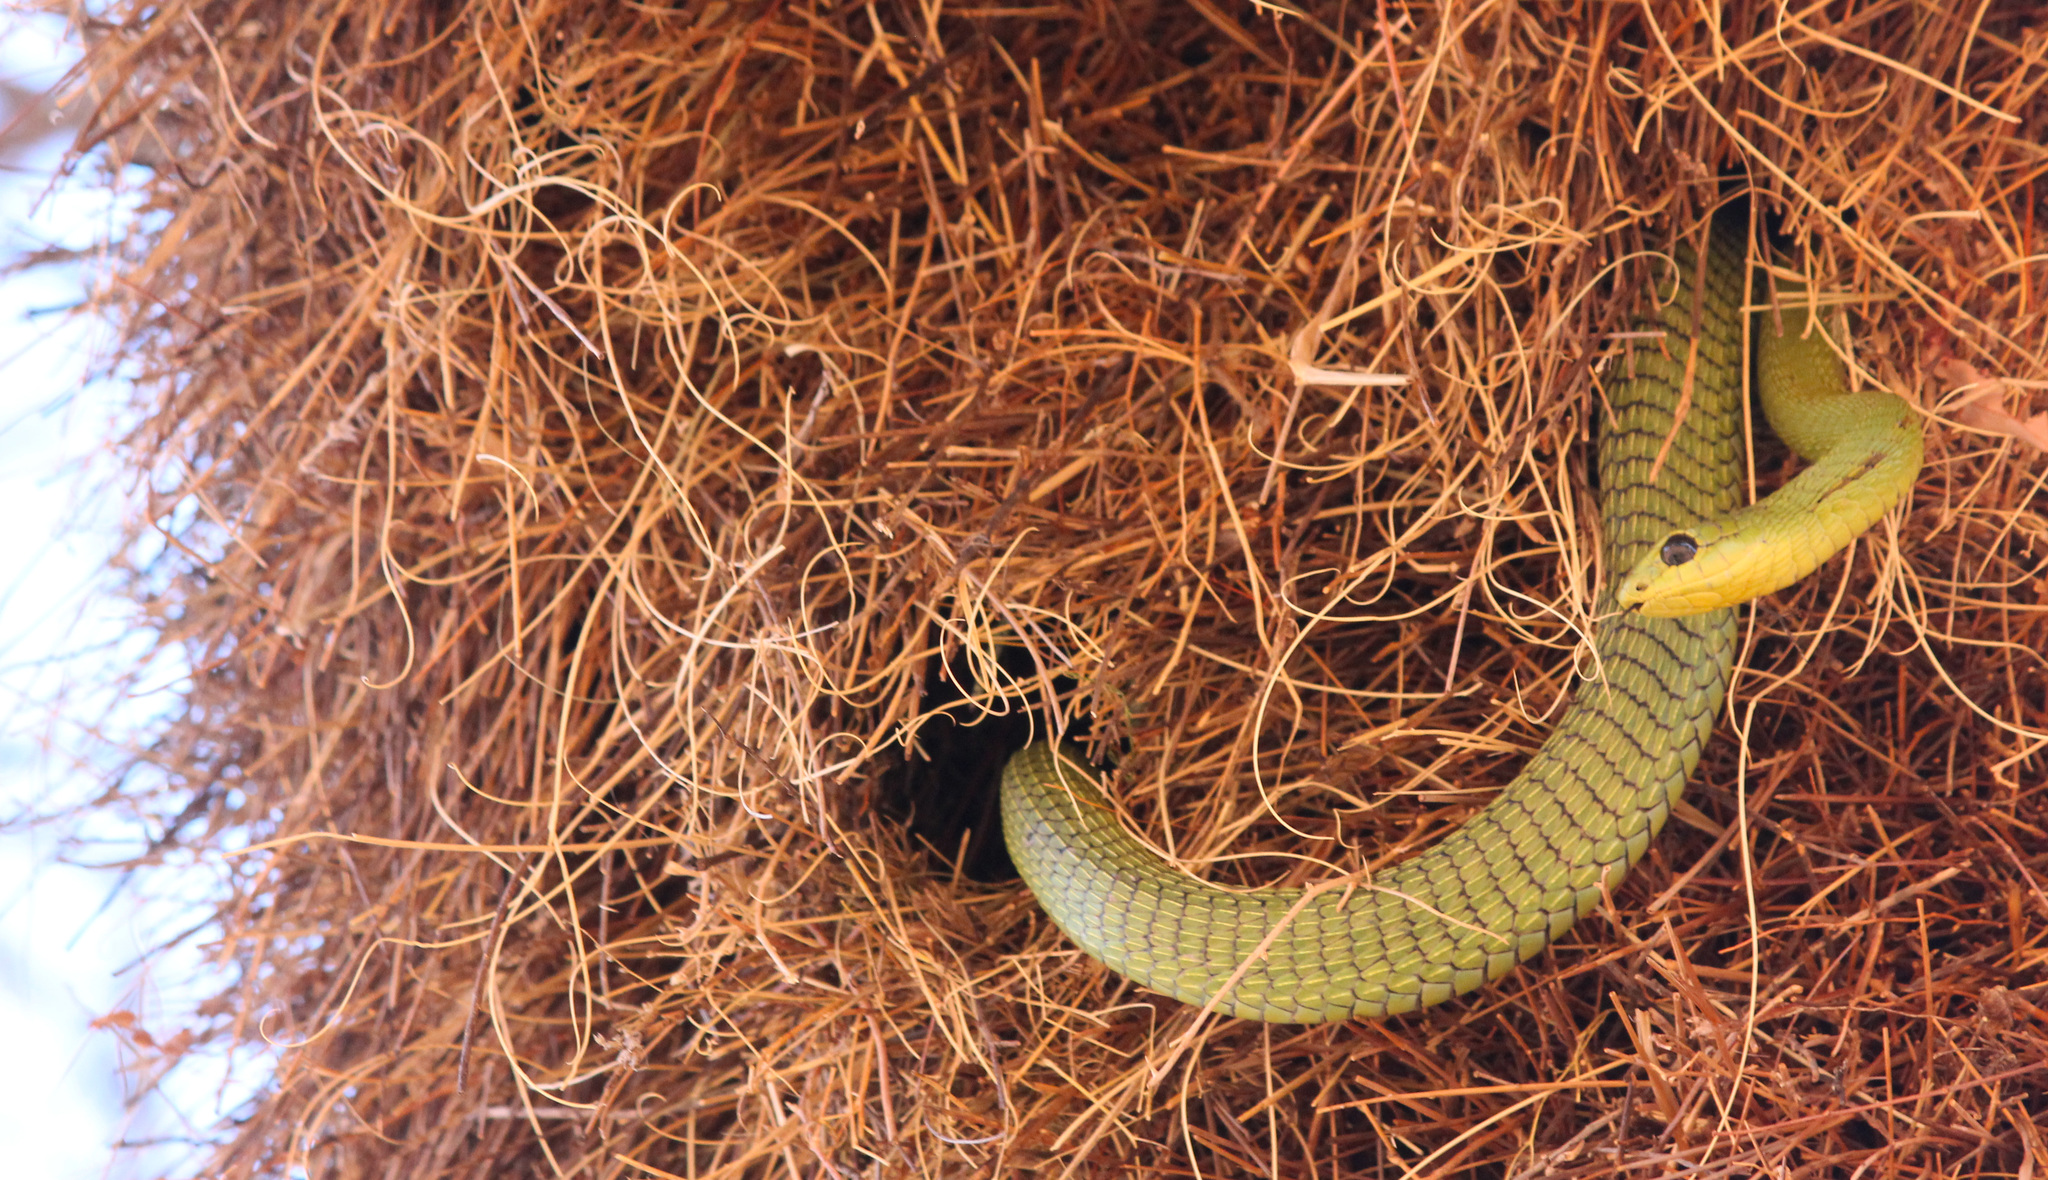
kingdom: Animalia
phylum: Chordata
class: Squamata
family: Colubridae
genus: Dispholidus
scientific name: Dispholidus typus
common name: Boomslang
